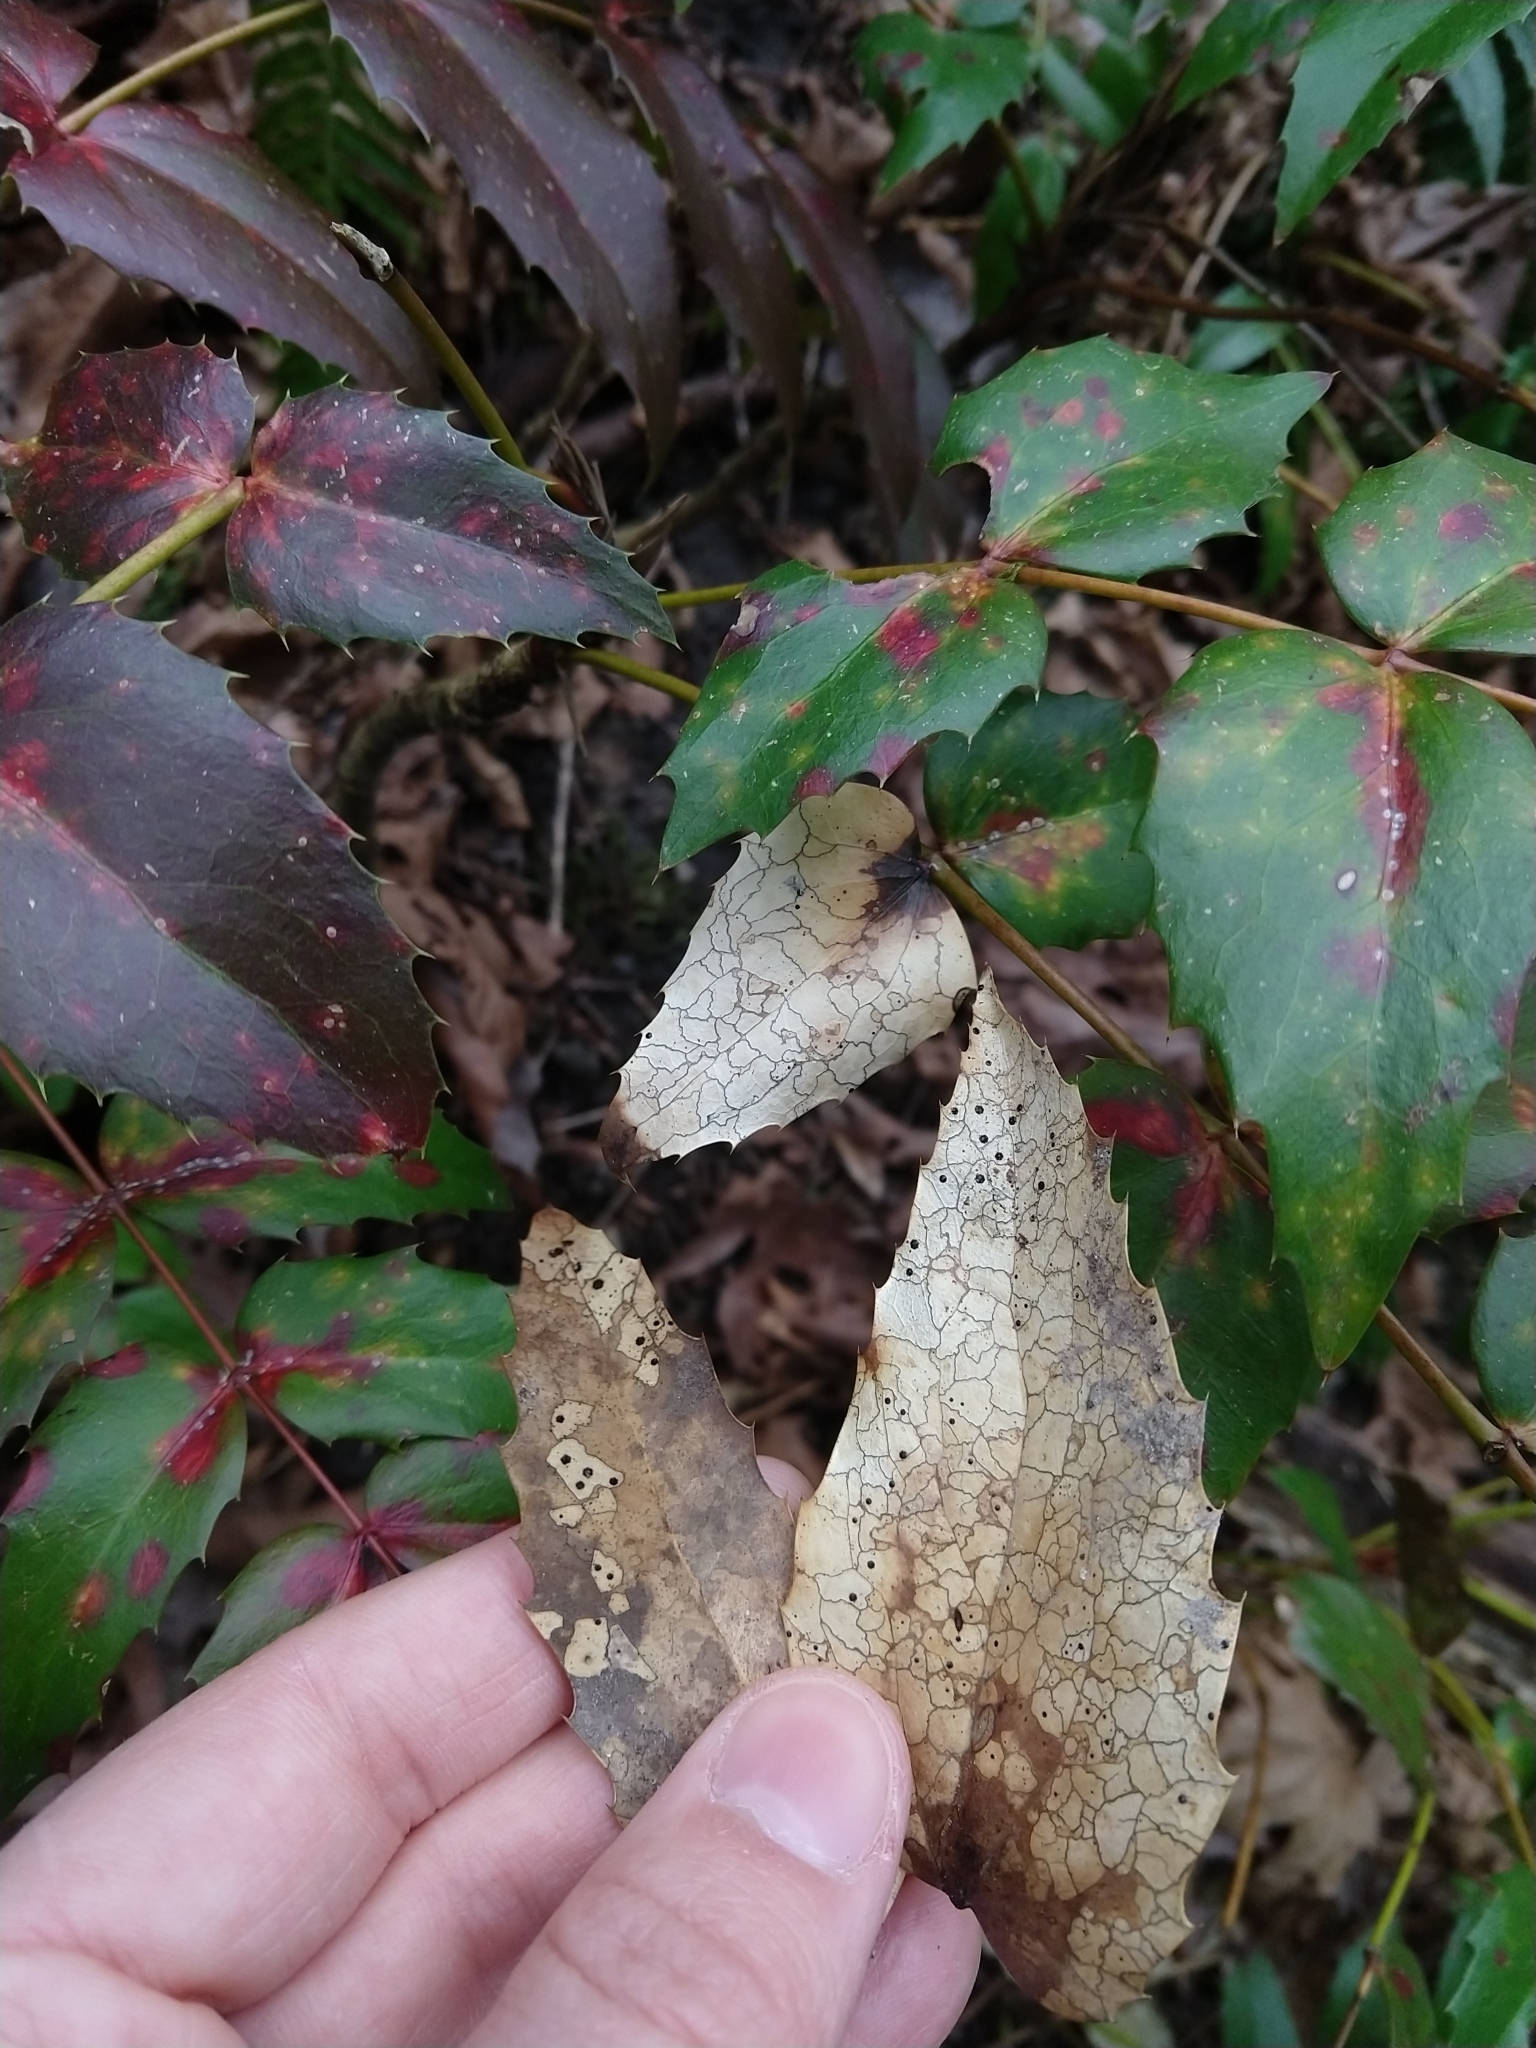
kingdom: Fungi
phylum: Ascomycota
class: Leotiomycetes
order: Rhytismatales
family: Rhytismataceae
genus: Coccomyces
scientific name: Coccomyces dentatus
